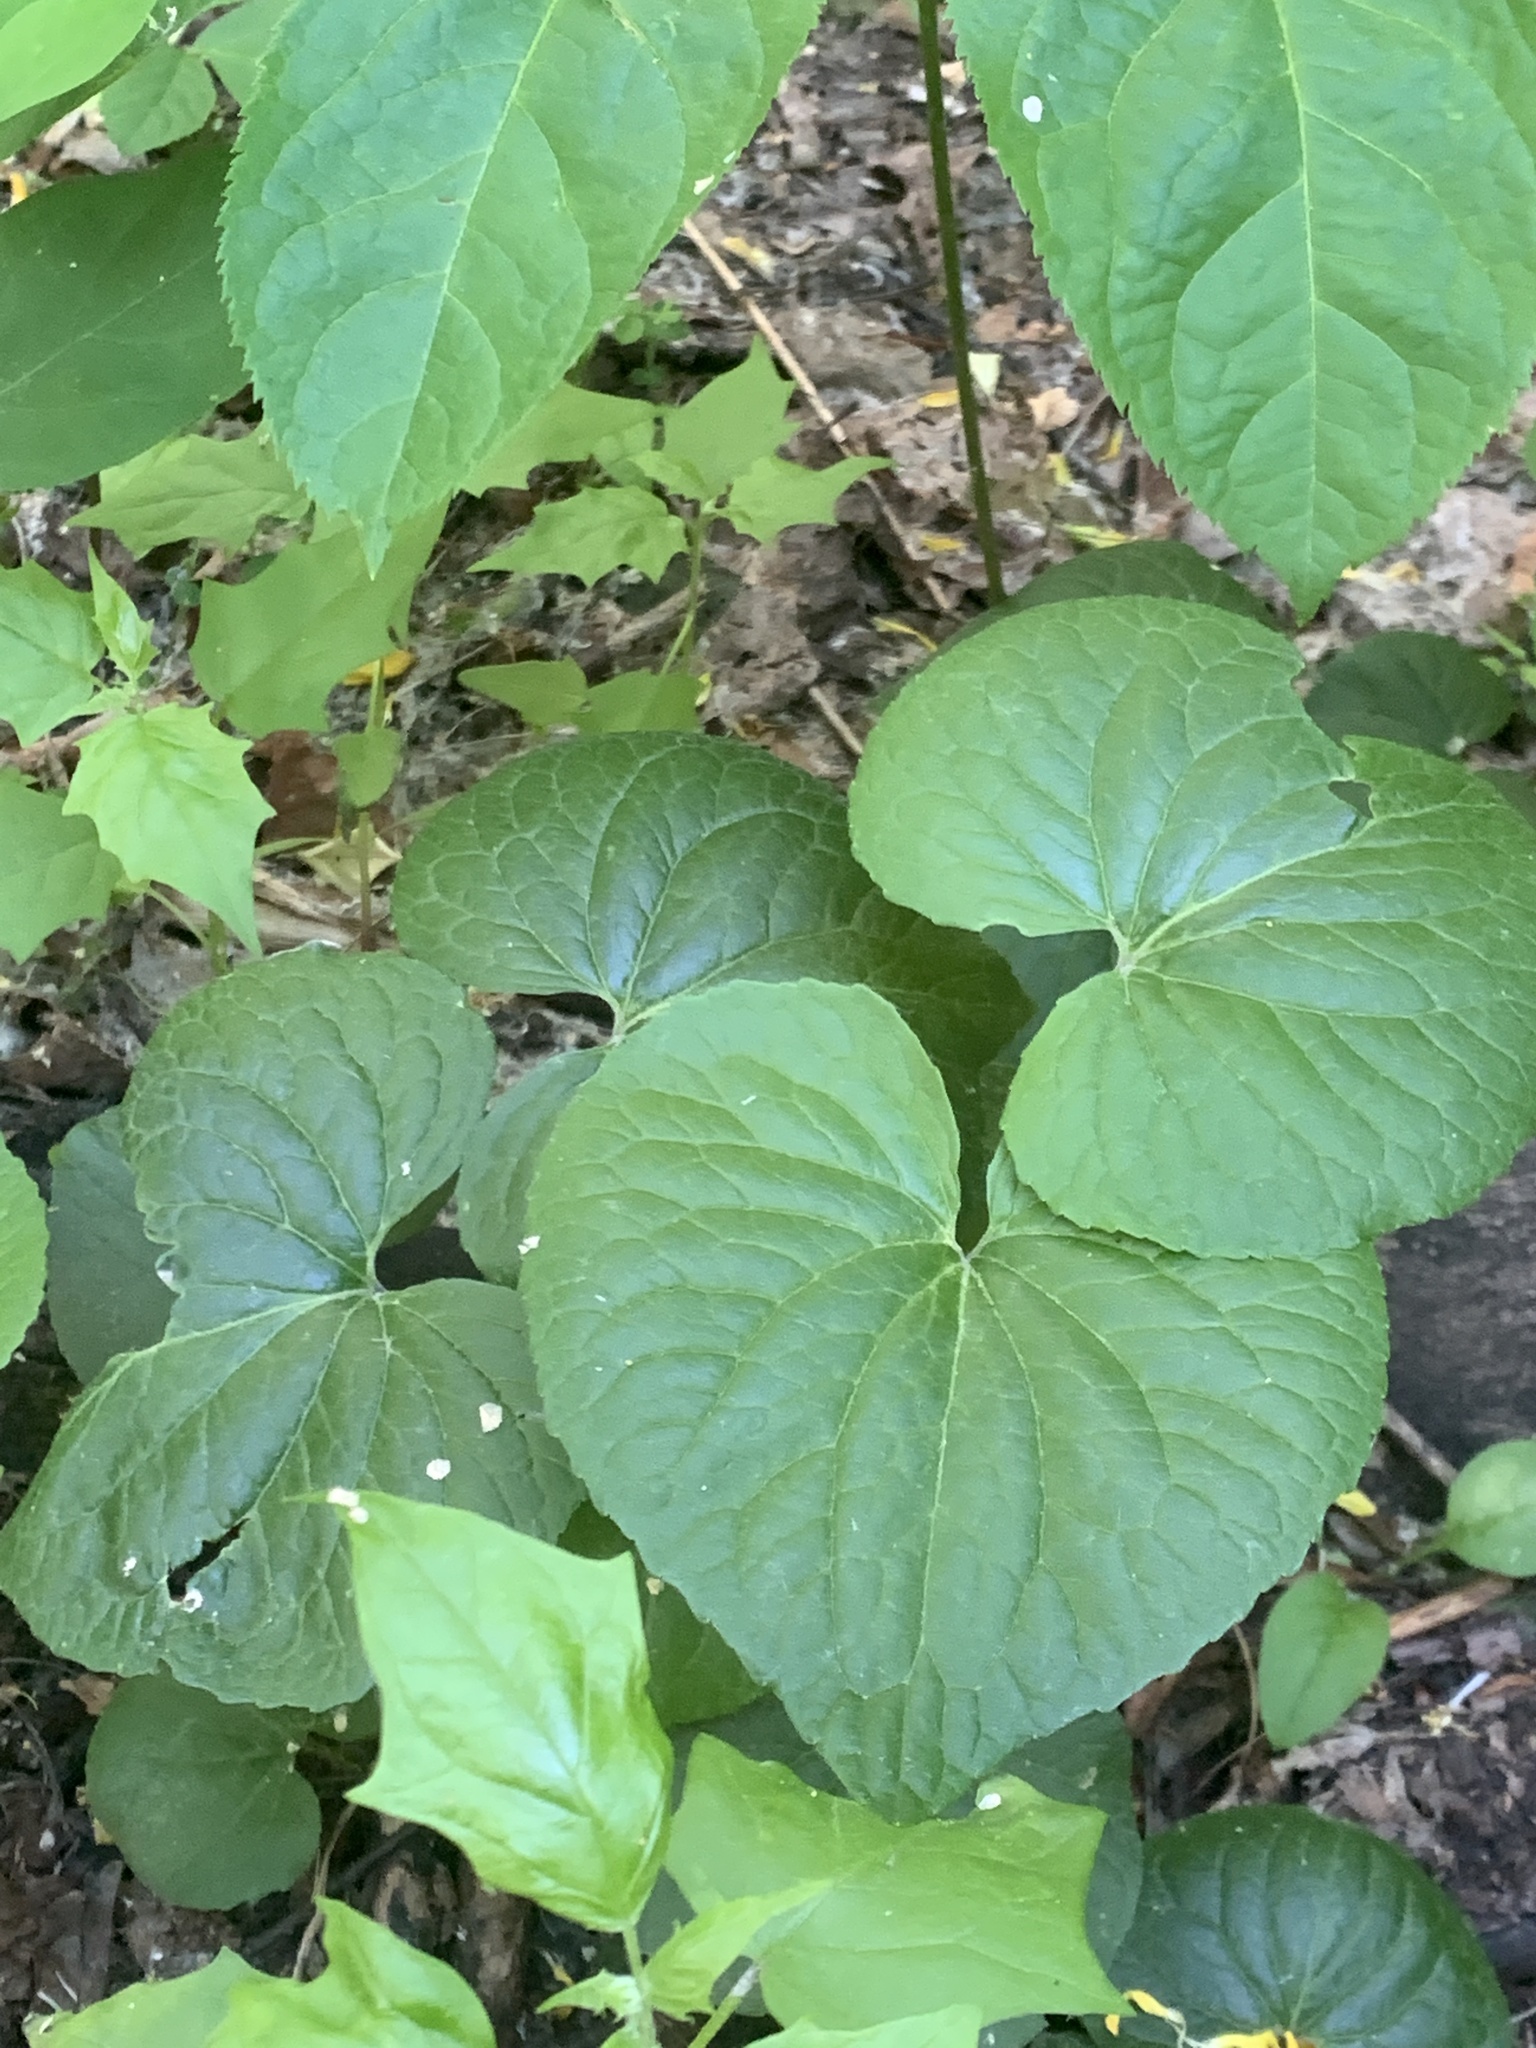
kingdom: Plantae
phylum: Tracheophyta
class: Magnoliopsida
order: Malpighiales
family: Violaceae
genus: Viola
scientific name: Viola canadensis
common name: Canada violet
